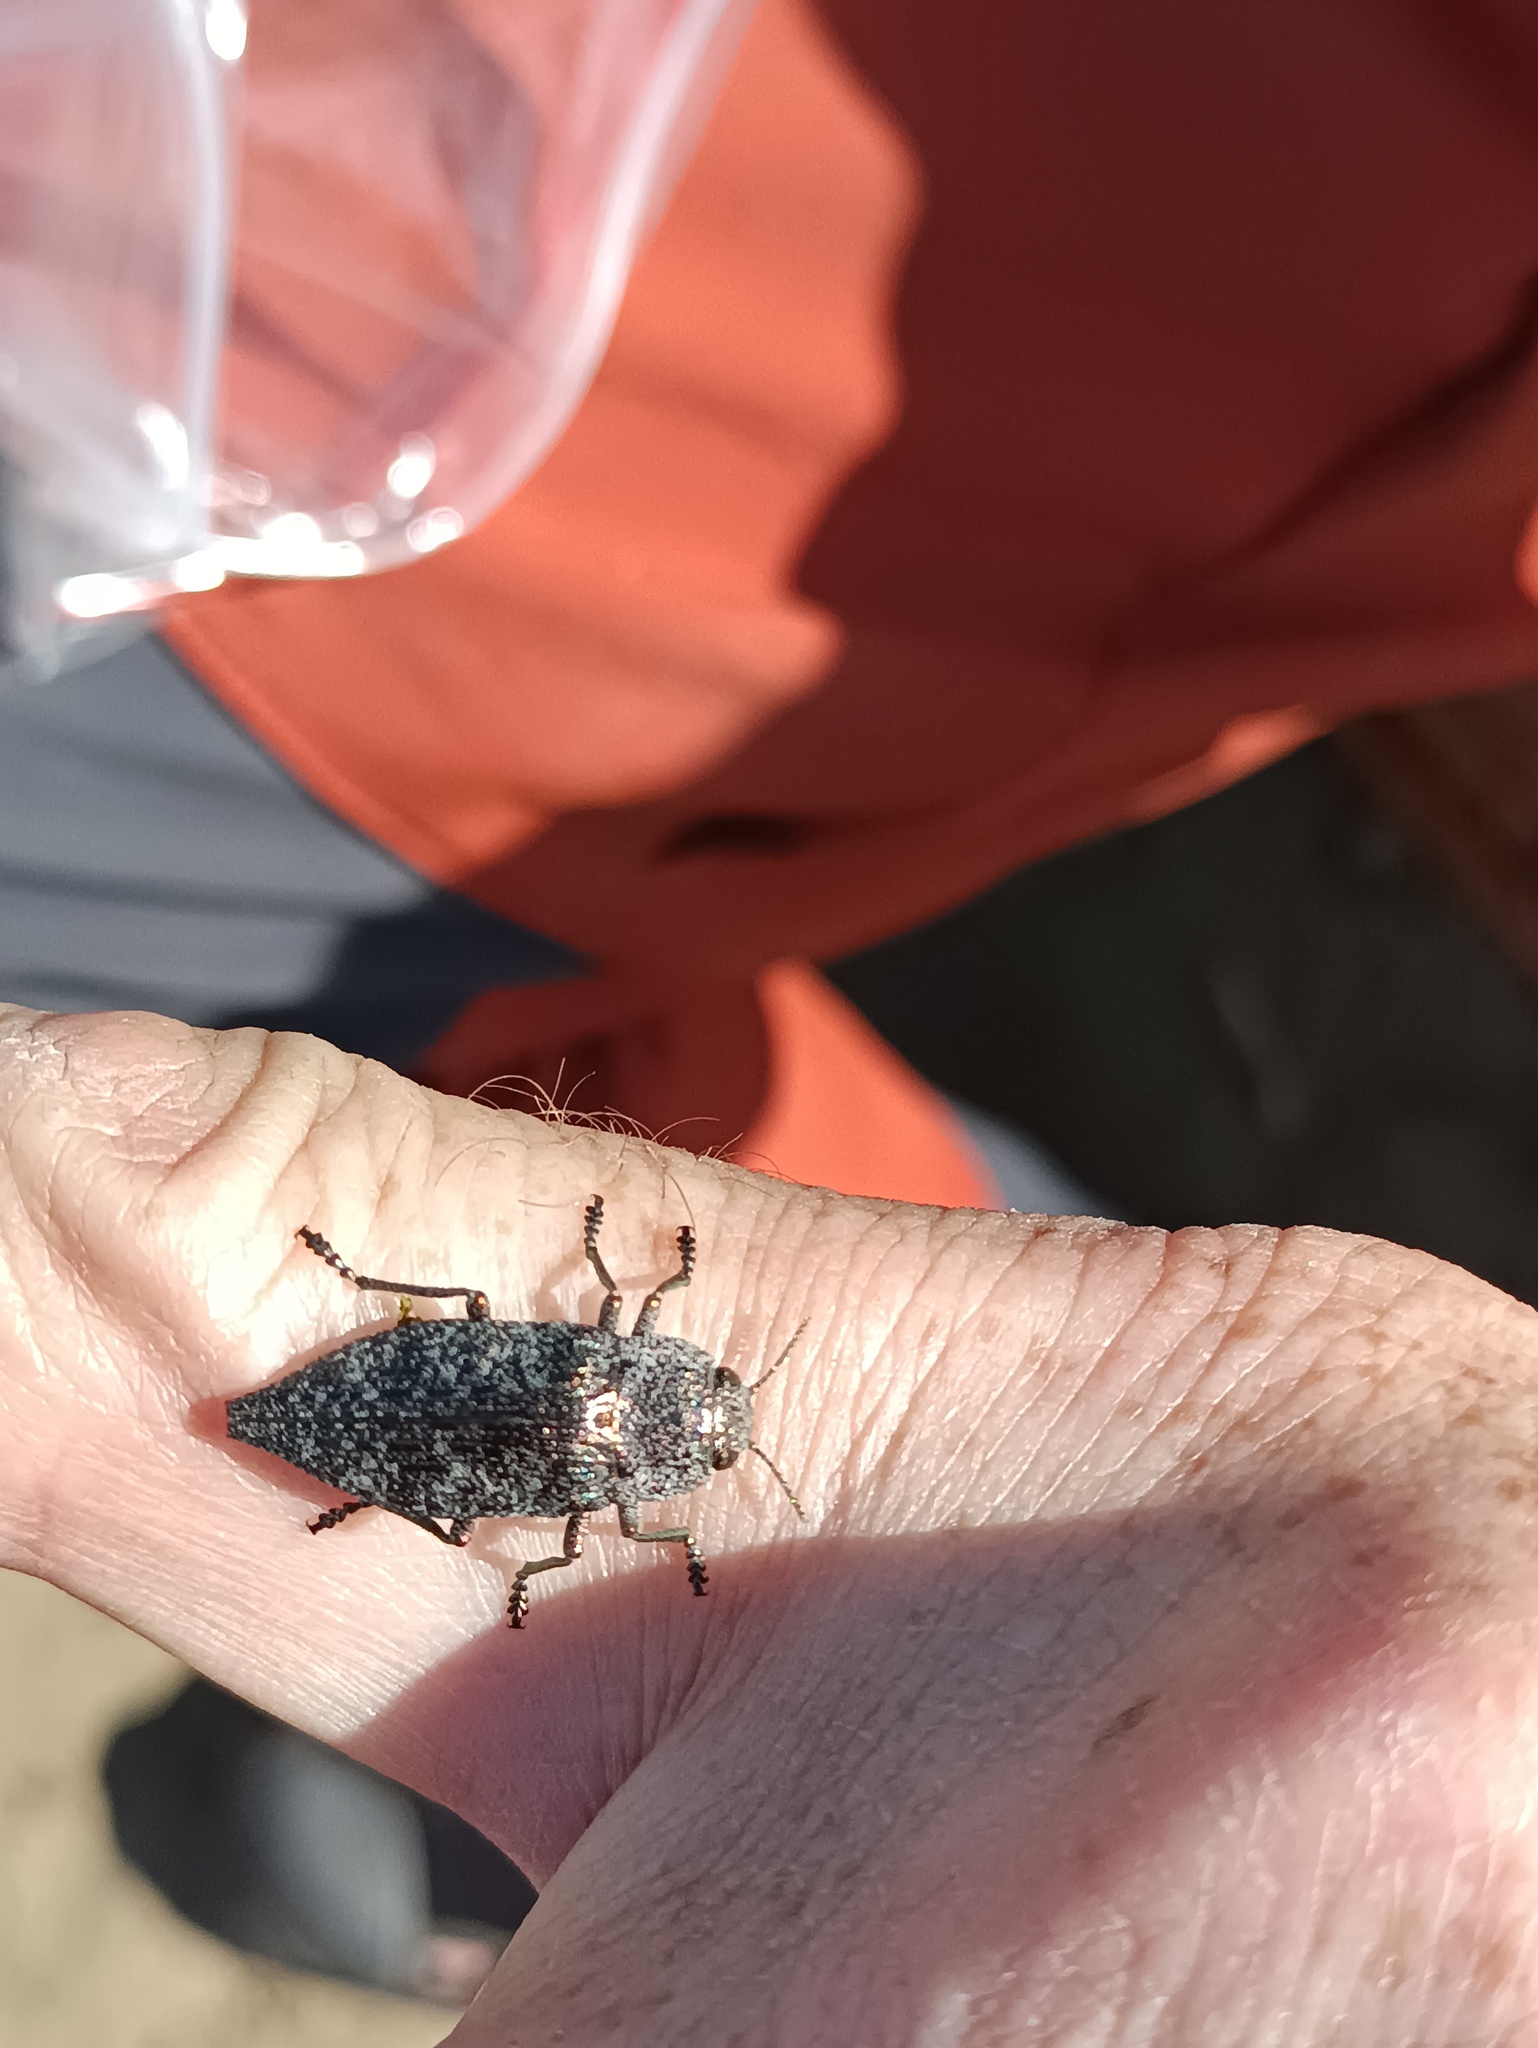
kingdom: Animalia
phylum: Arthropoda
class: Insecta
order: Coleoptera
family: Buprestidae
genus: Dicerca
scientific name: Dicerca aenea
